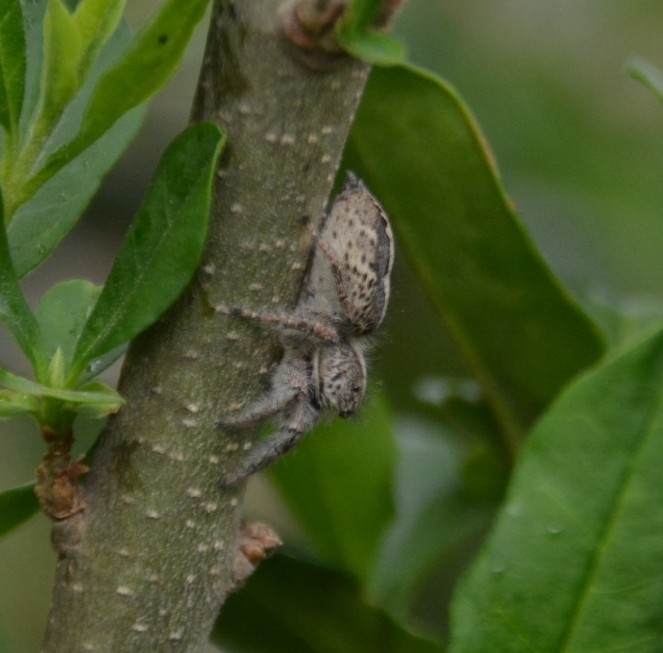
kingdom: Animalia
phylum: Arthropoda
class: Arachnida
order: Araneae
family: Salticidae
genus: Megafreya
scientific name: Megafreya sutrix
